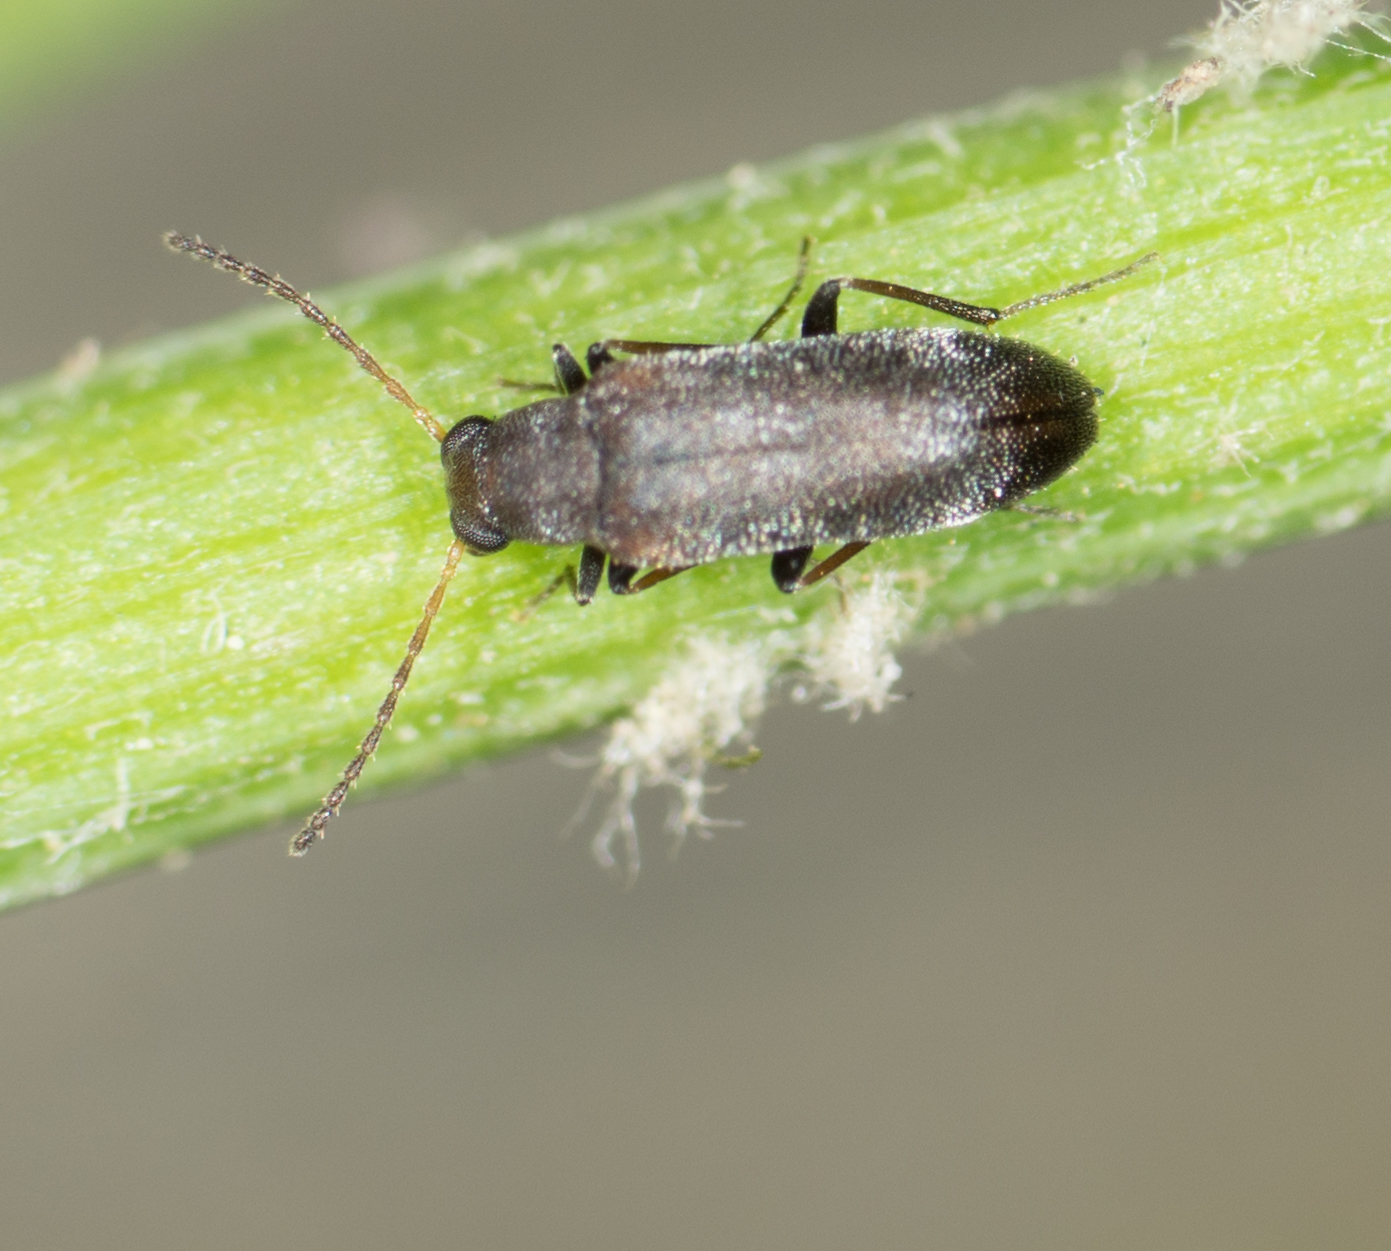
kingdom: Animalia
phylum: Arthropoda
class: Insecta
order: Coleoptera
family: Melandryidae
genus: Microtonus
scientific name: Microtonus sericans
